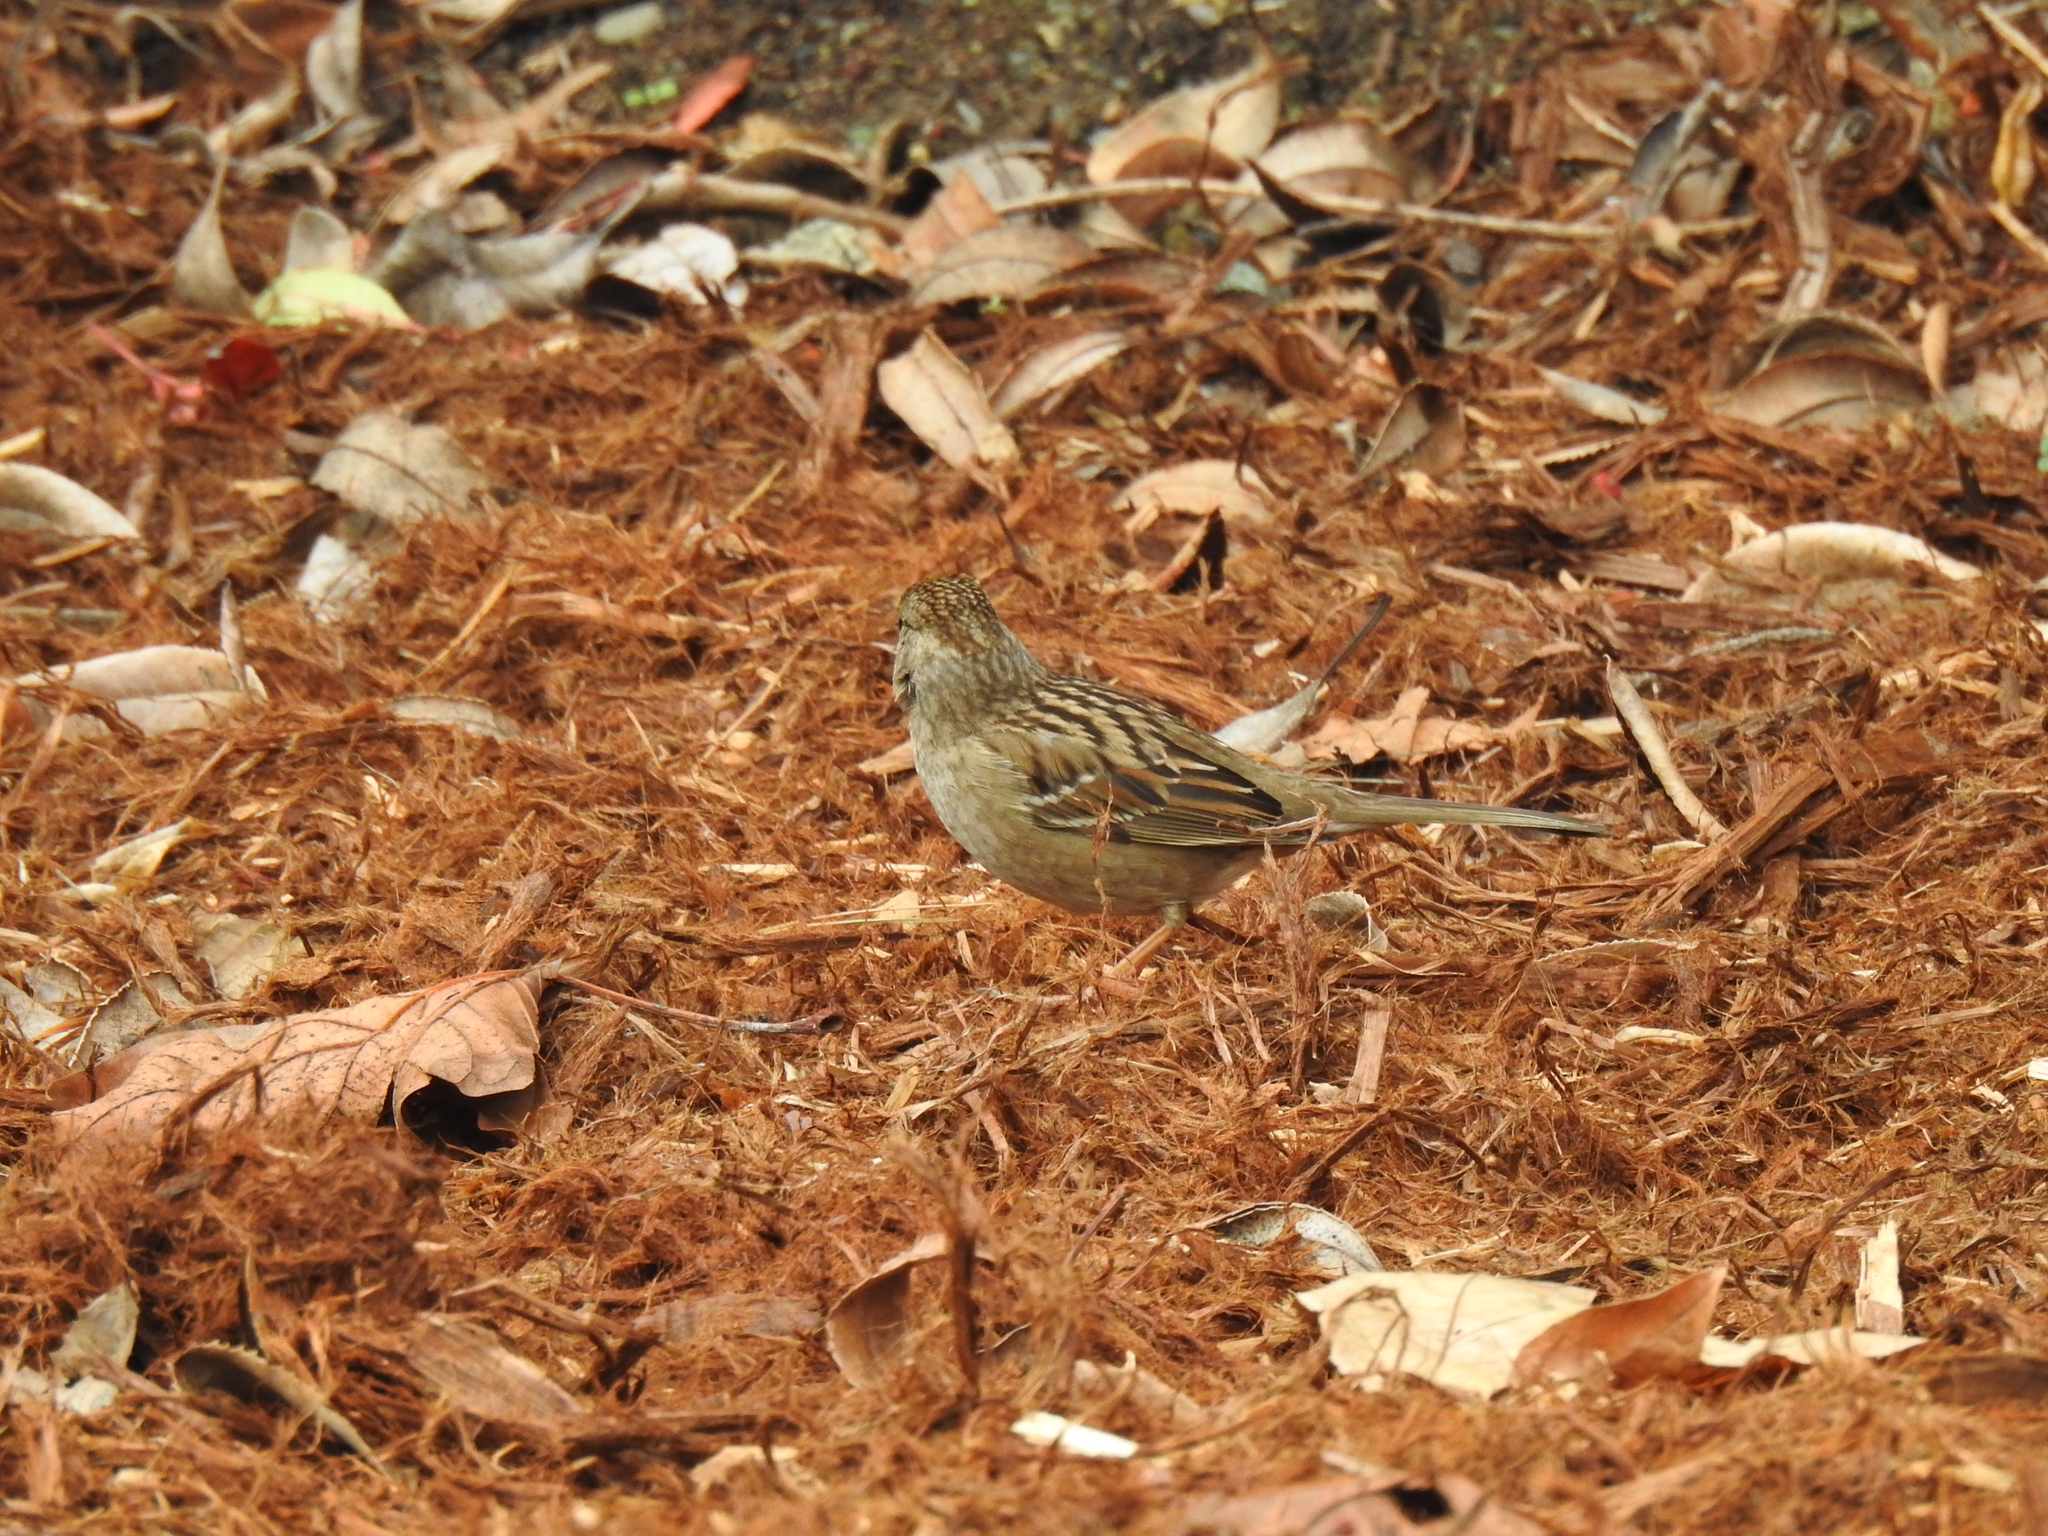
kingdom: Animalia
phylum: Chordata
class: Aves
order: Passeriformes
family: Passerellidae
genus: Zonotrichia
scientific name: Zonotrichia atricapilla
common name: Golden-crowned sparrow
